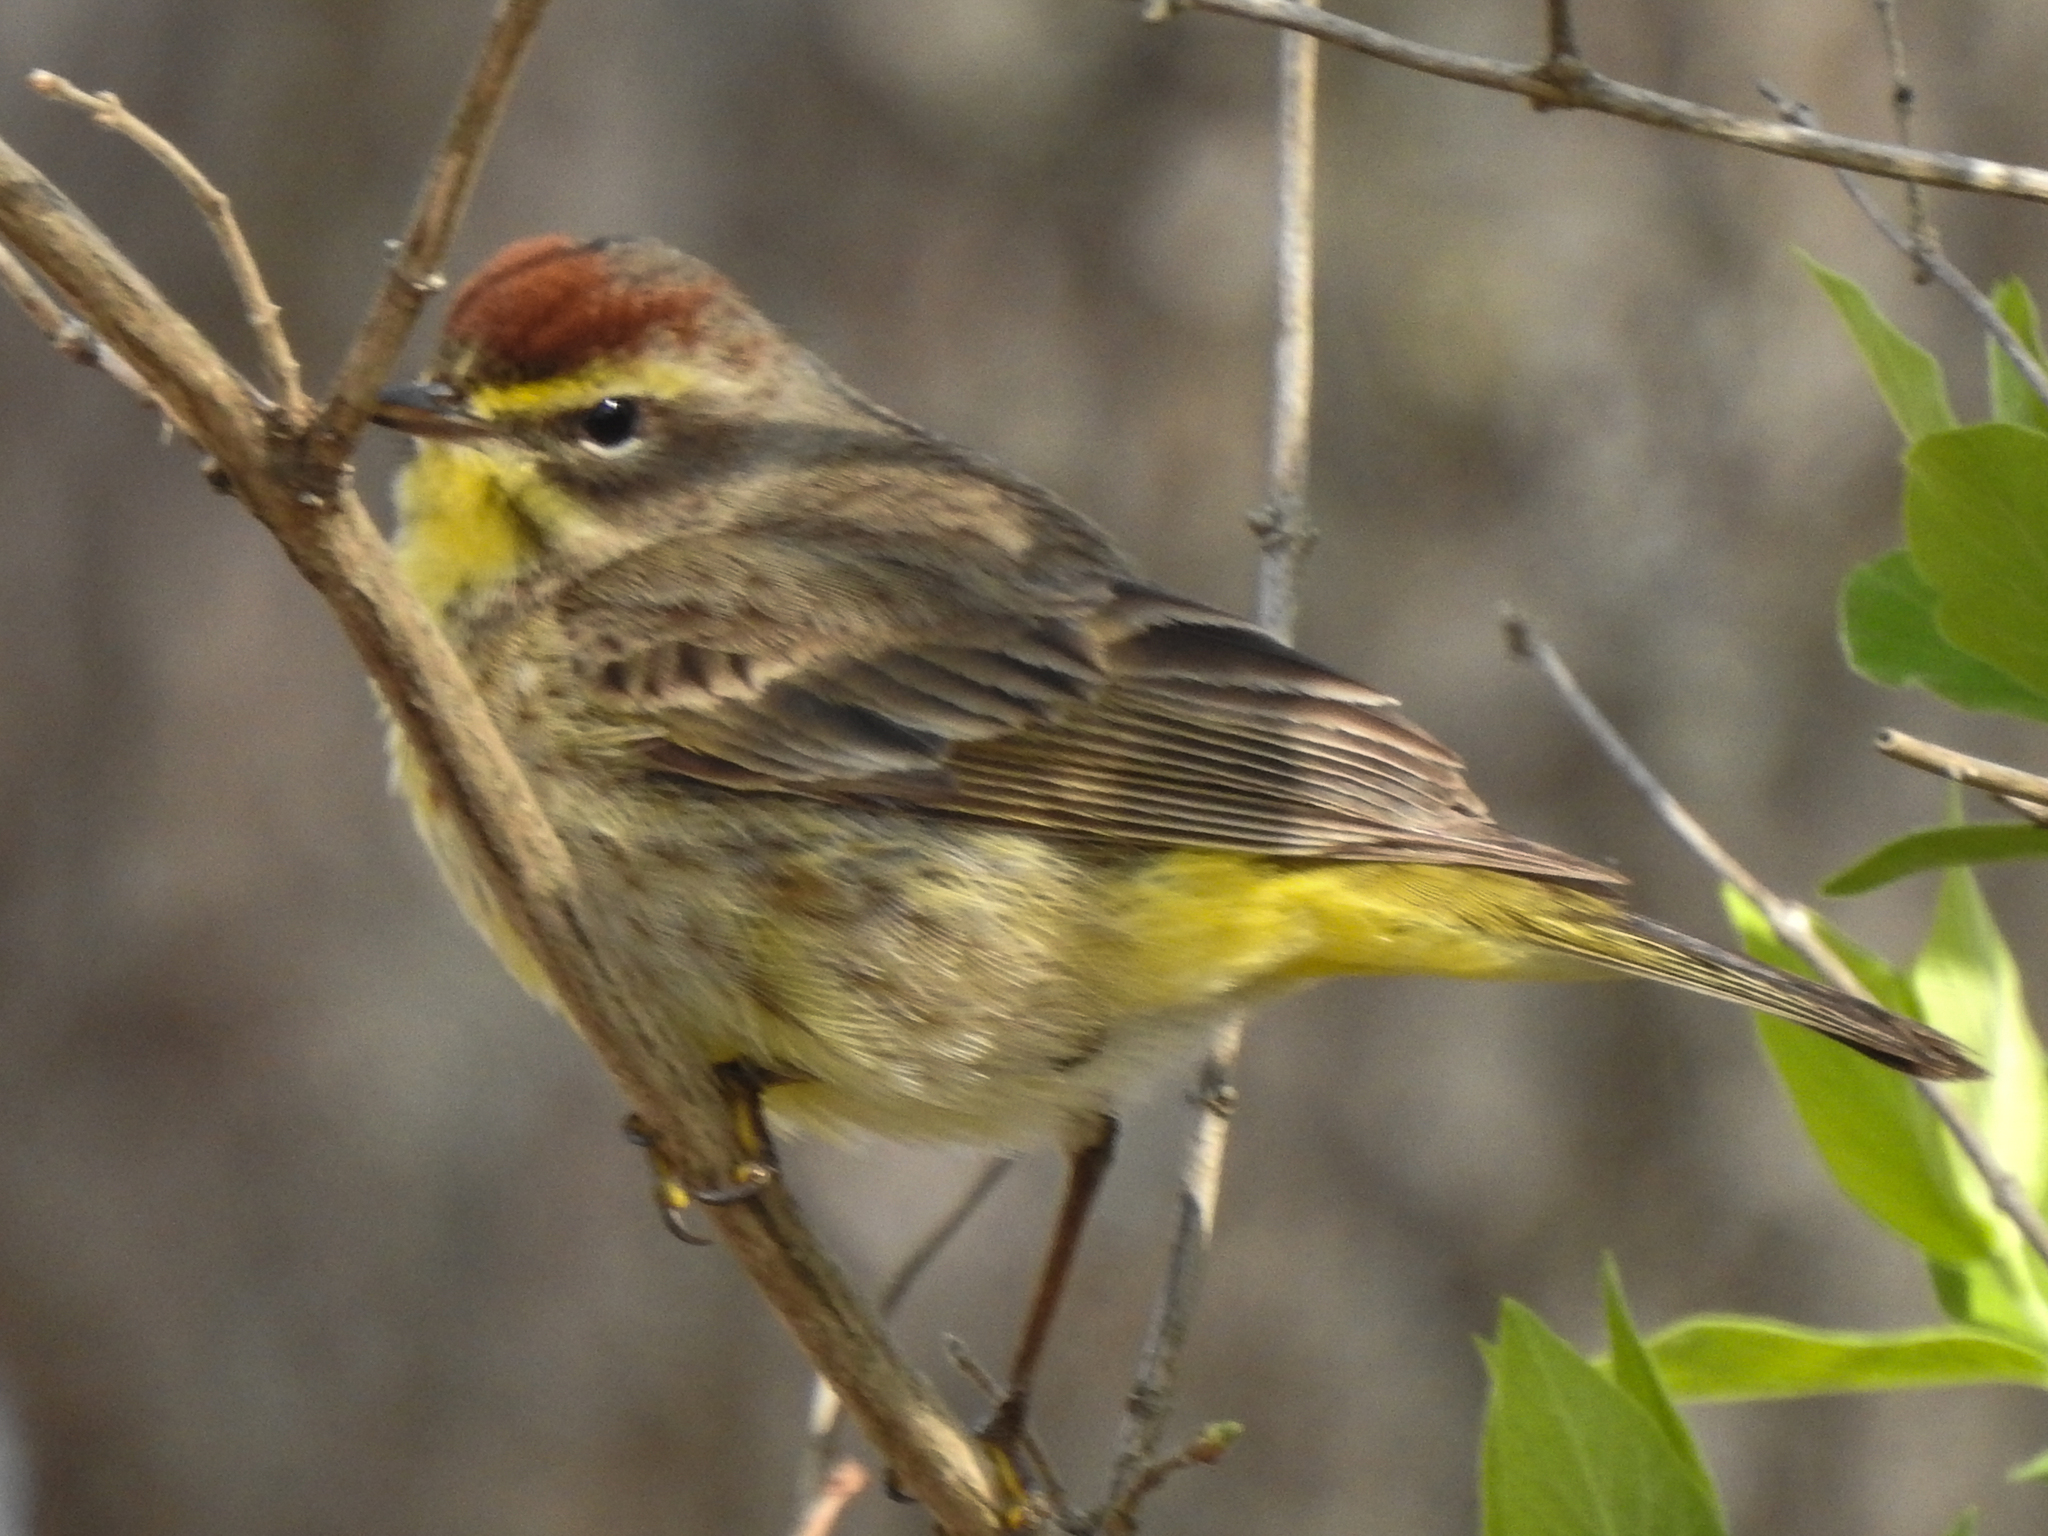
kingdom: Animalia
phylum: Chordata
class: Aves
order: Passeriformes
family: Parulidae
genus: Setophaga
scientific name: Setophaga palmarum
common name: Palm warbler
